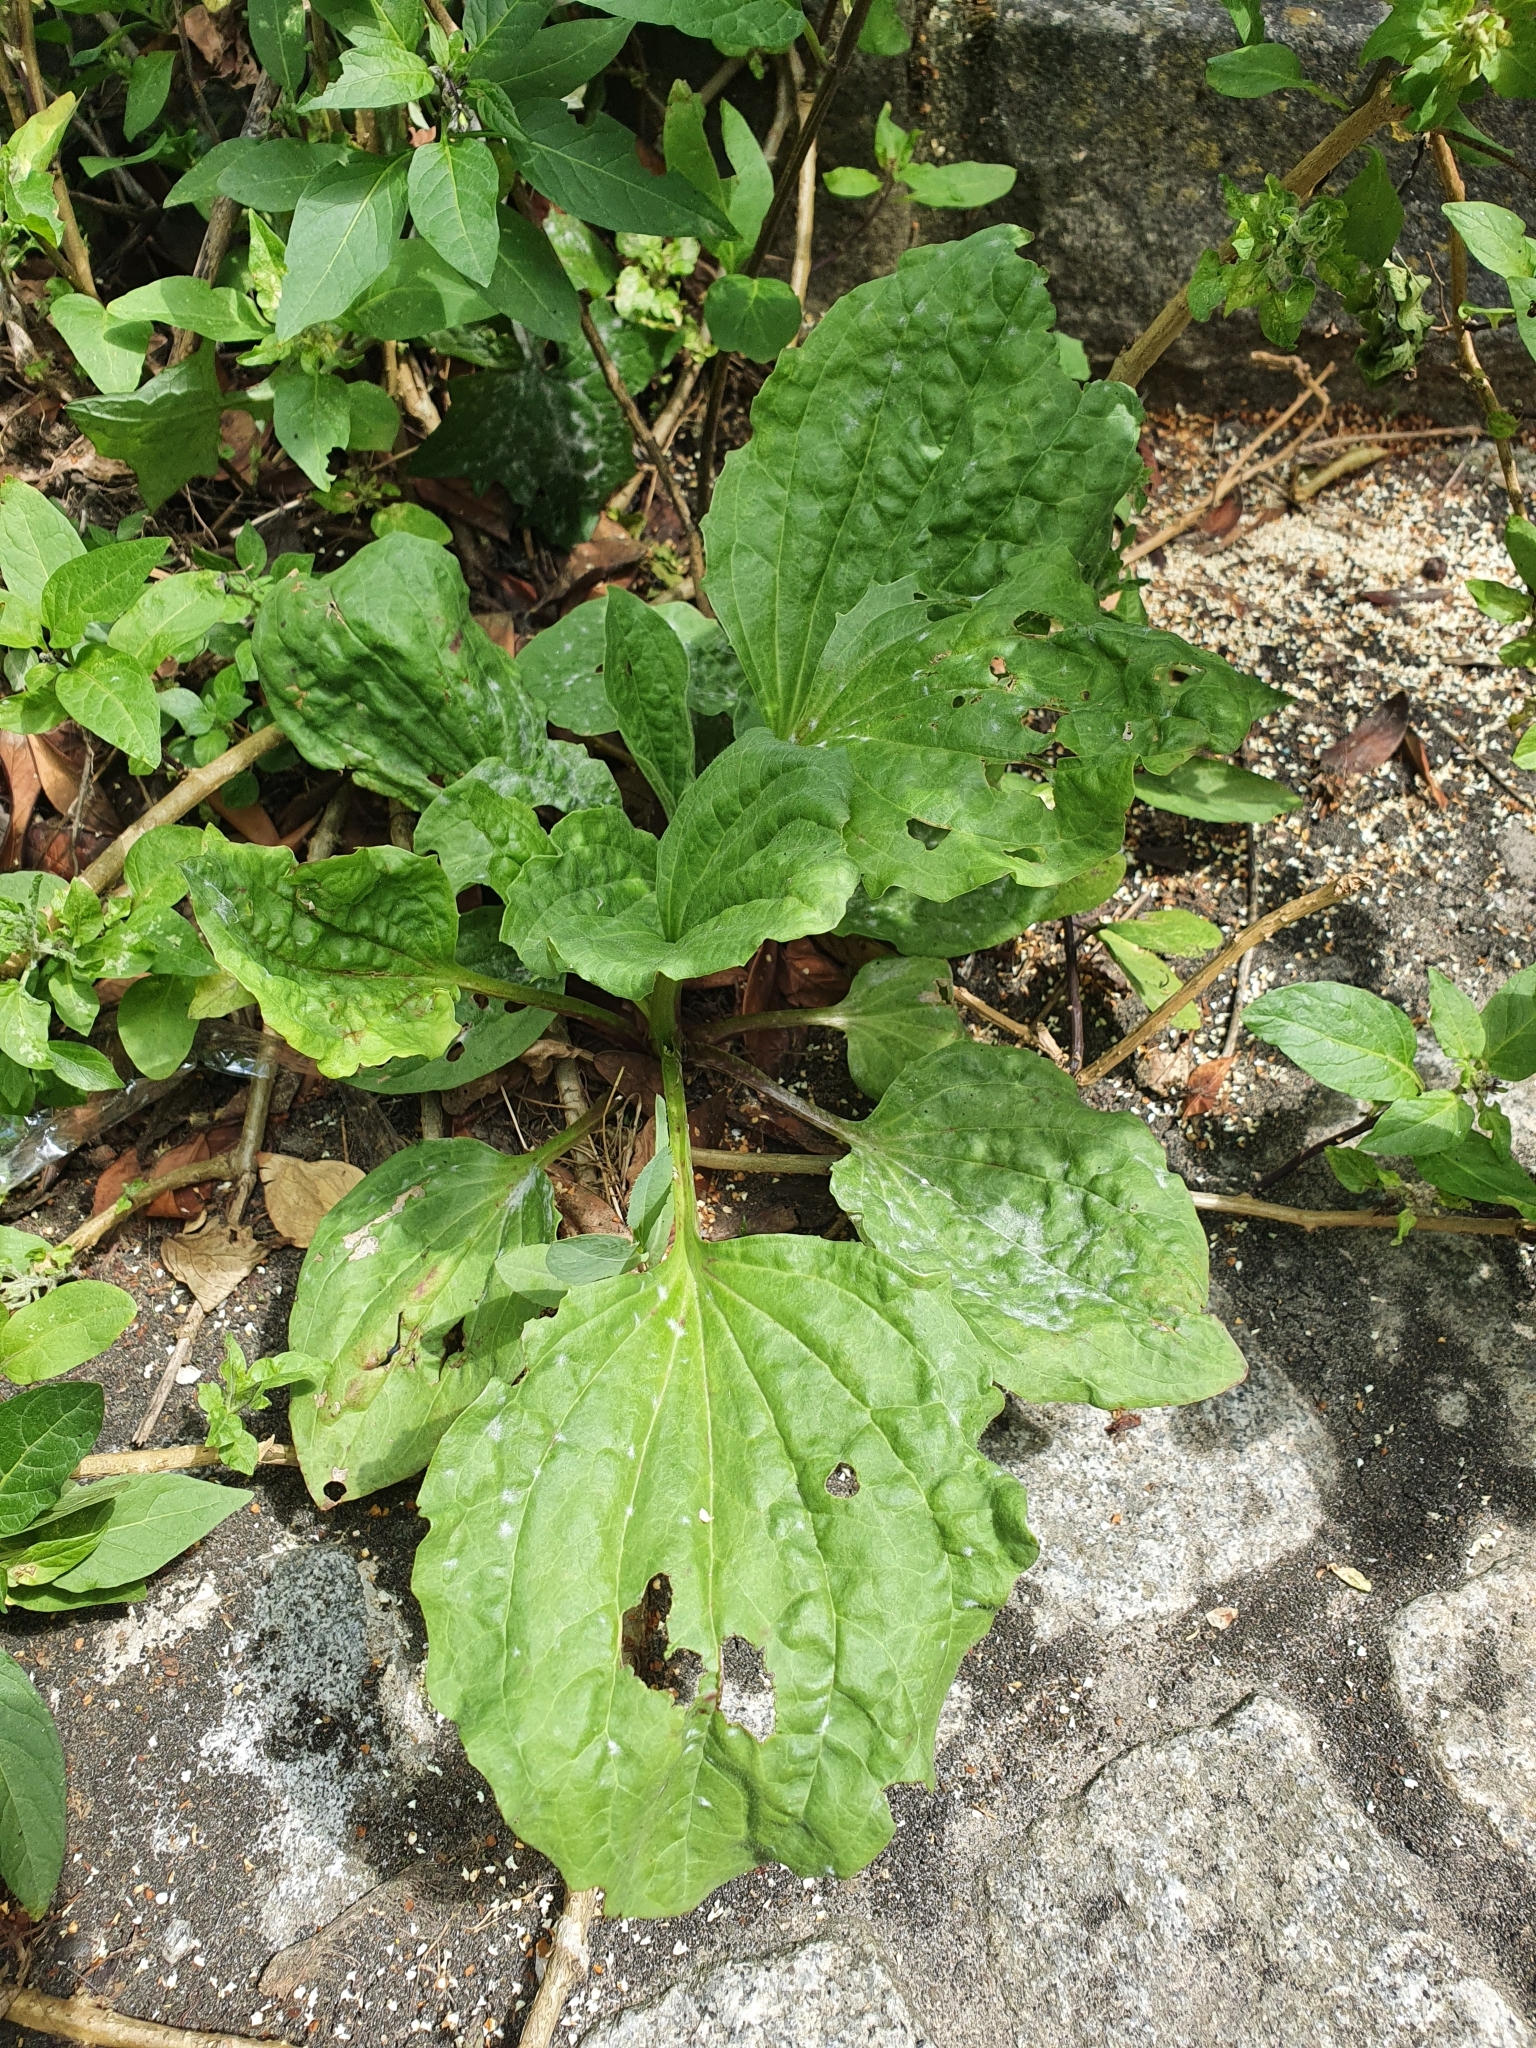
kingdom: Plantae
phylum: Tracheophyta
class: Magnoliopsida
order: Lamiales
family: Plantaginaceae
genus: Plantago
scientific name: Plantago major
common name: Common plantain
